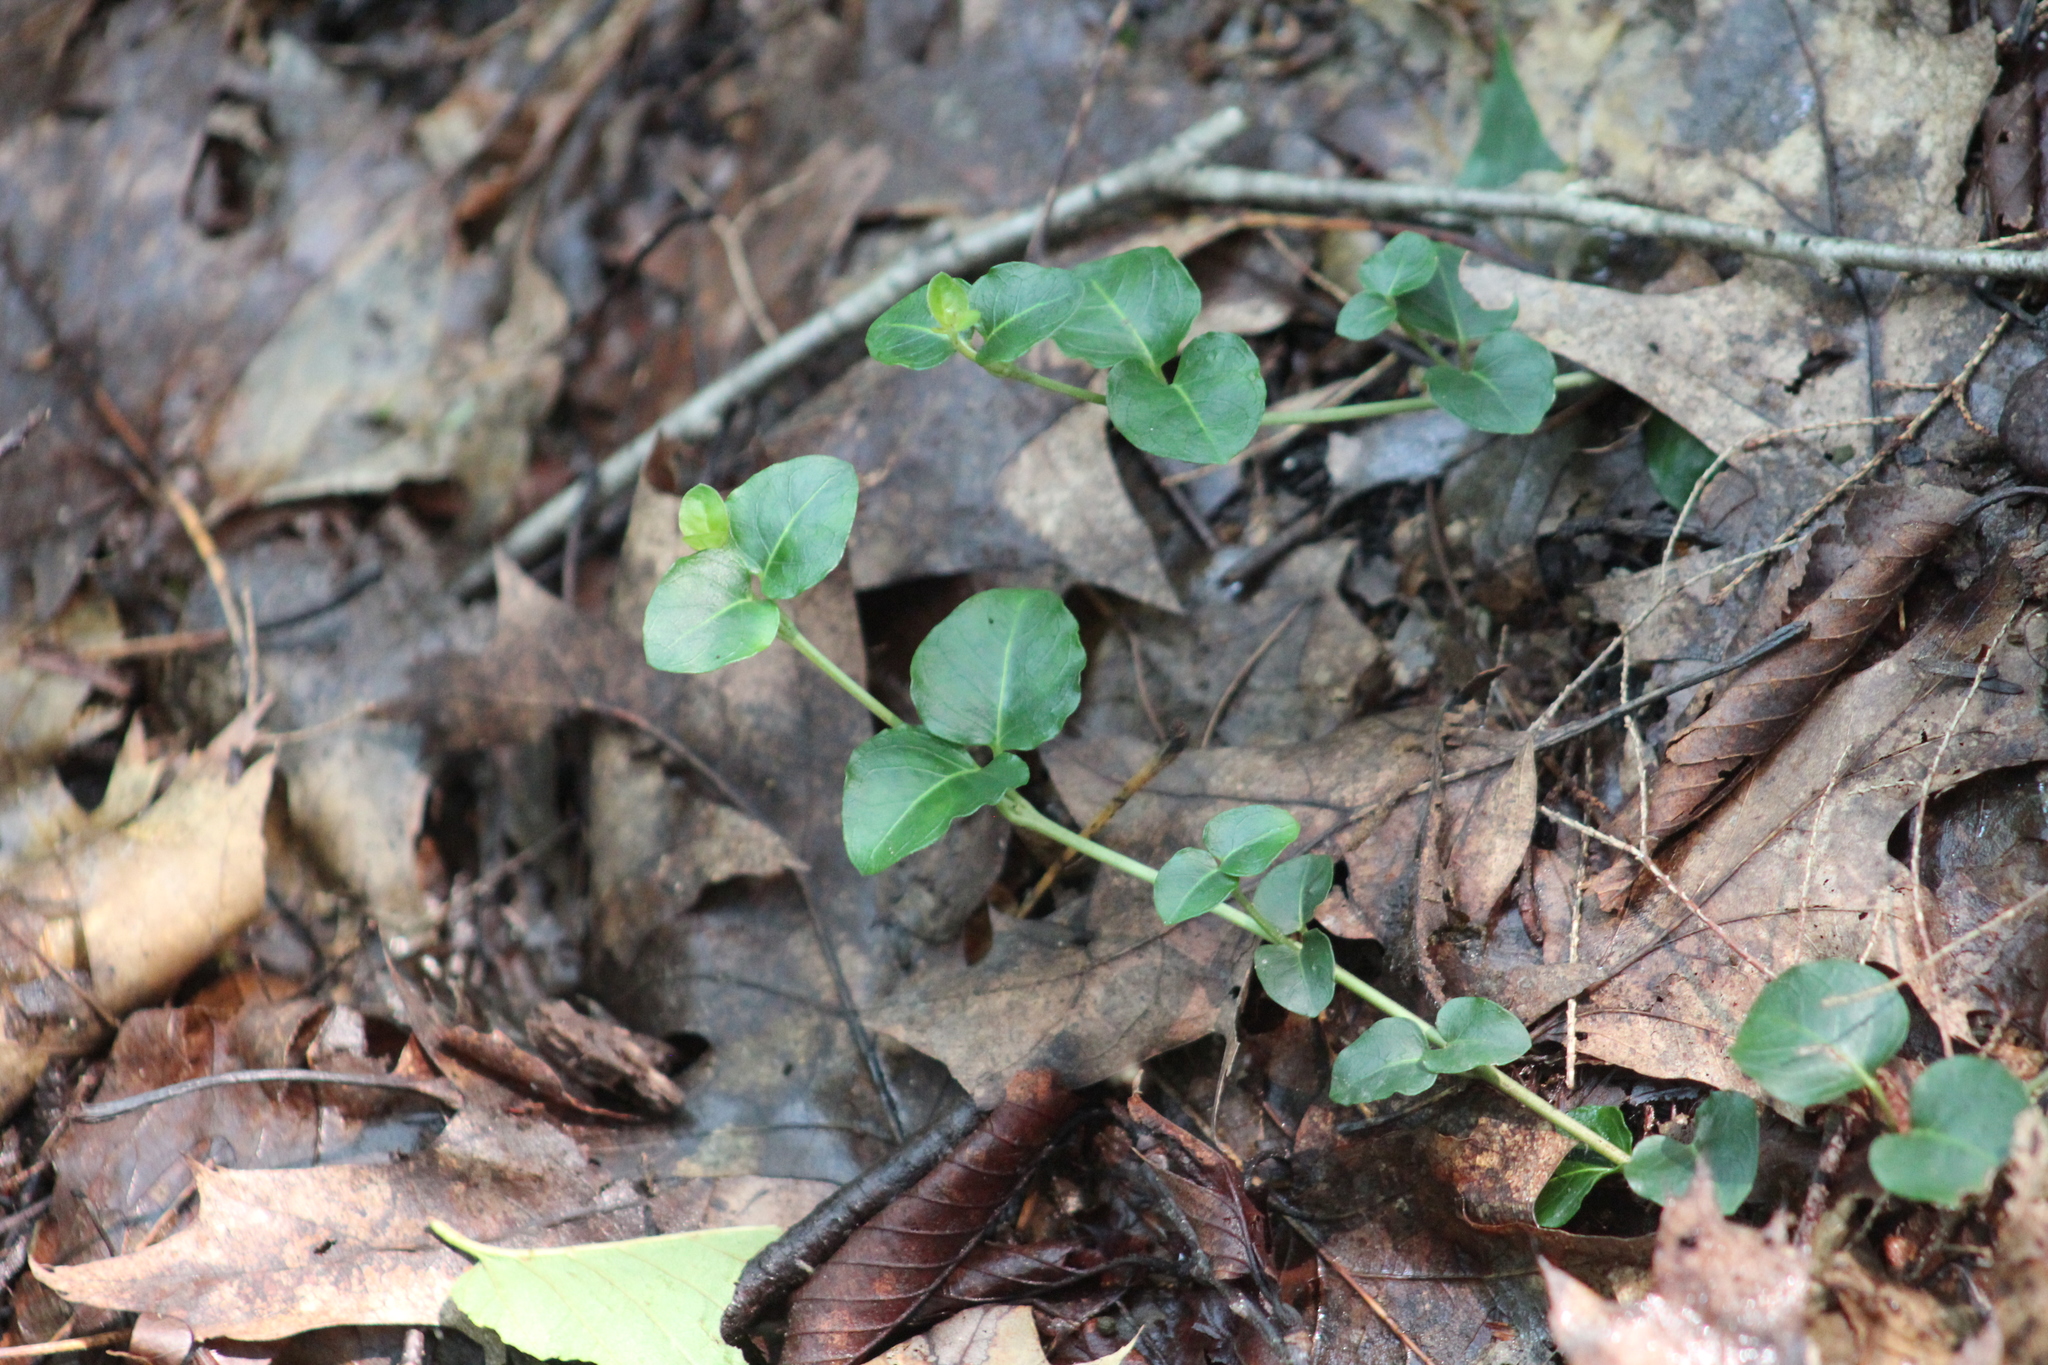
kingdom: Plantae
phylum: Tracheophyta
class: Magnoliopsida
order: Gentianales
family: Rubiaceae
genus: Mitchella
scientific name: Mitchella repens
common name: Partridge-berry
